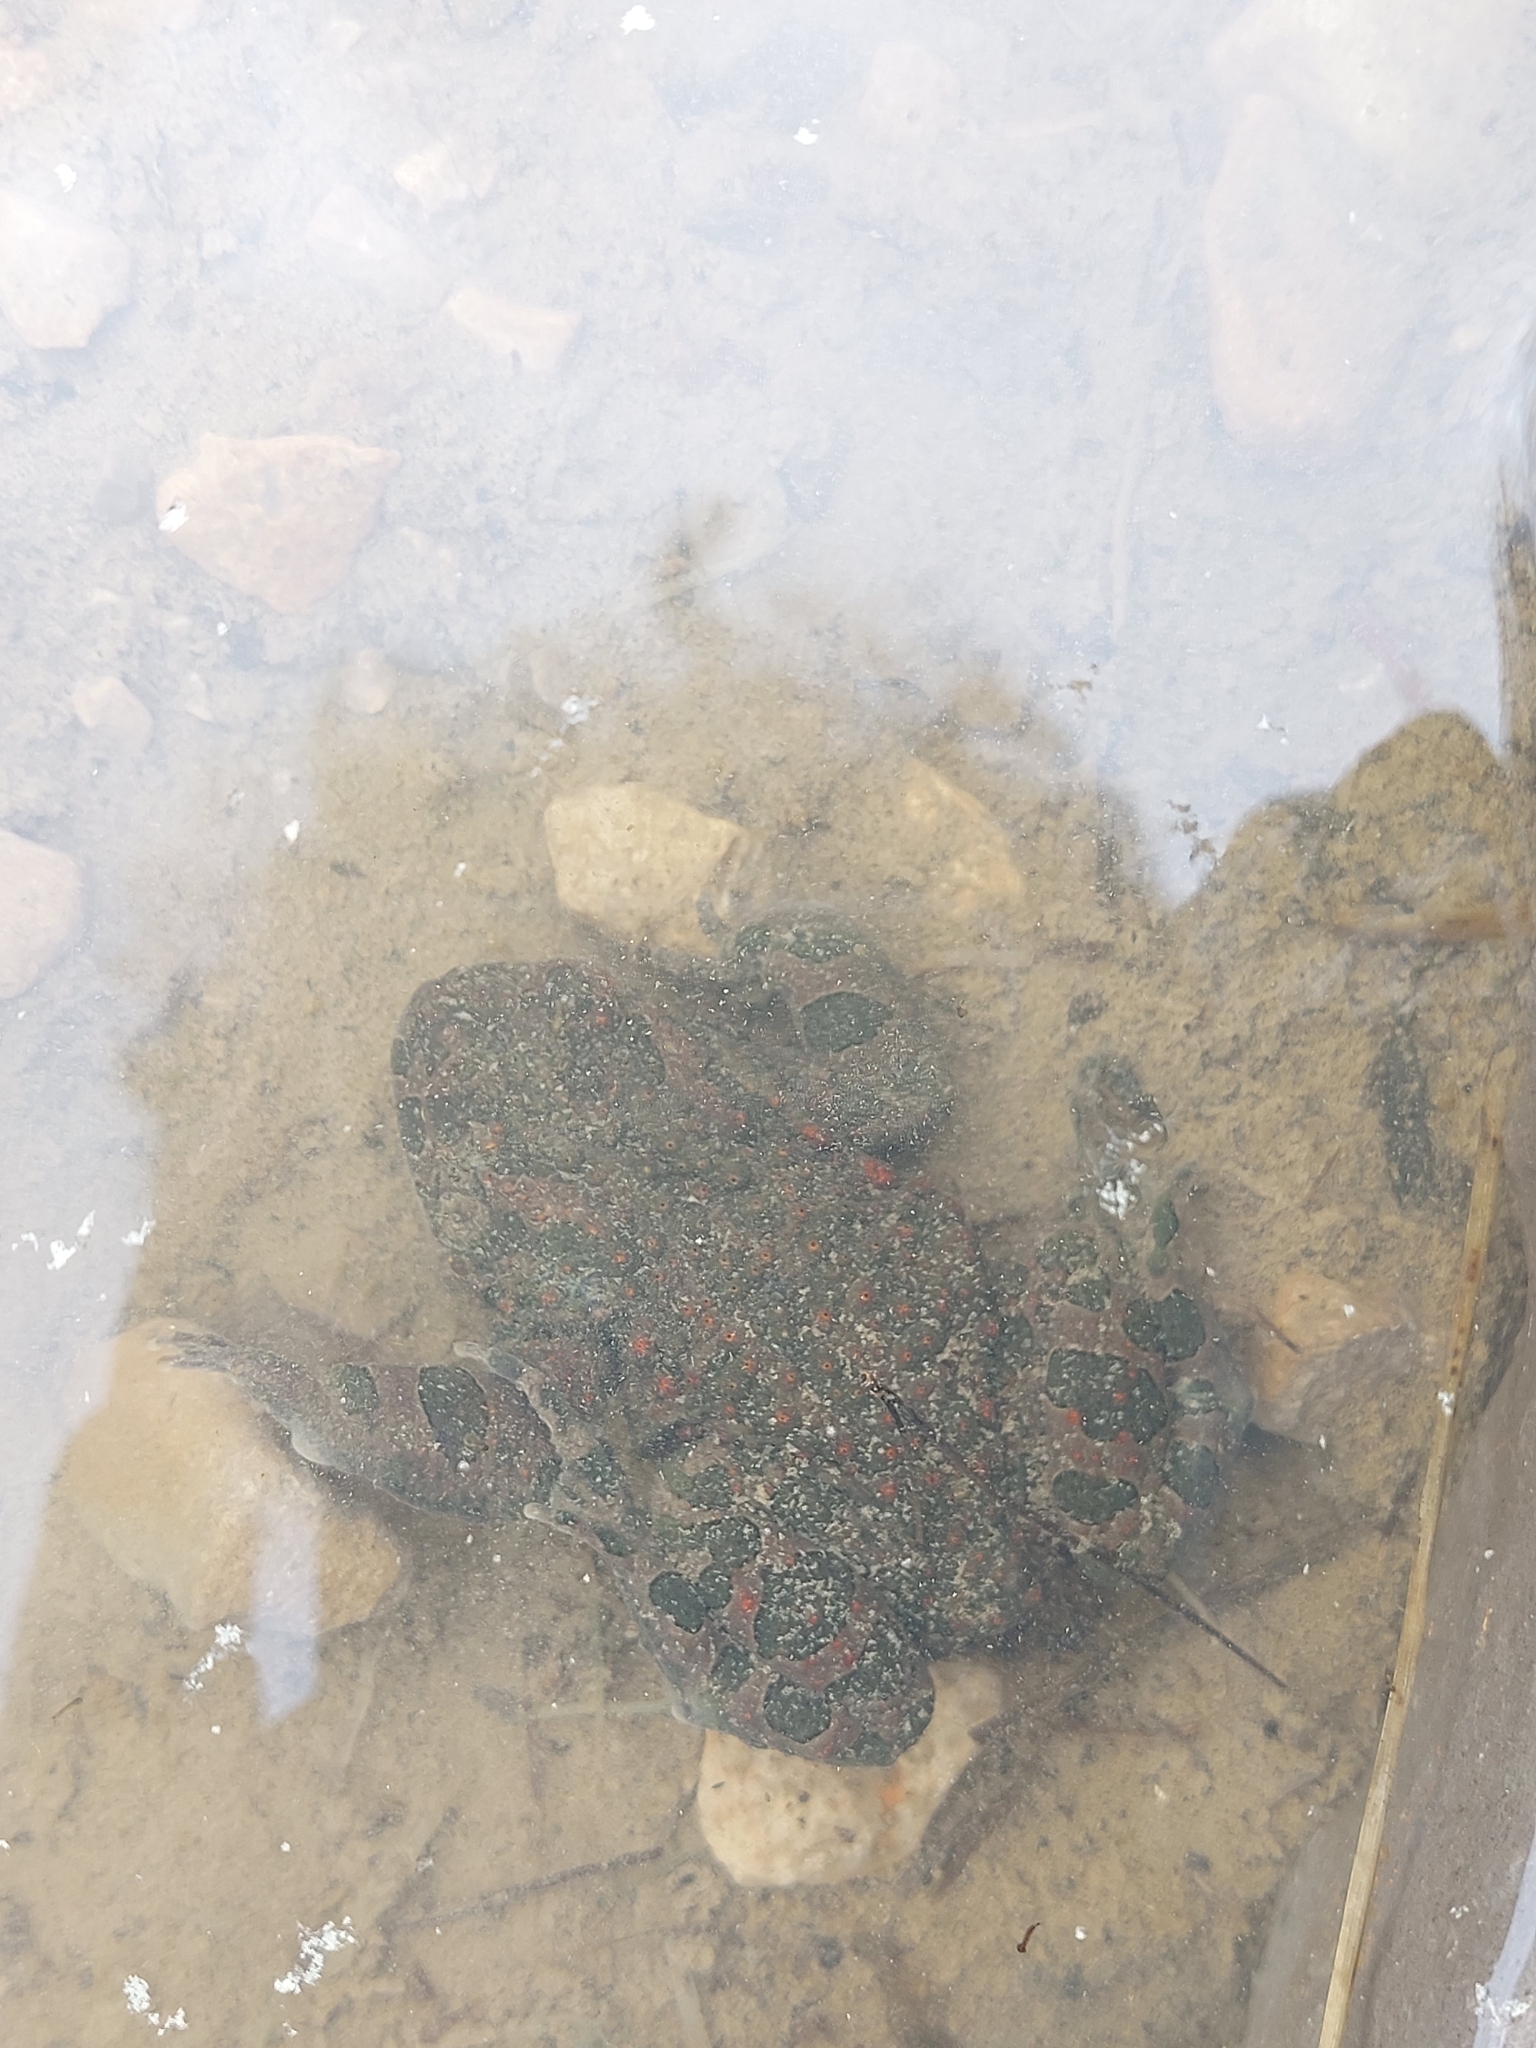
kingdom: Animalia
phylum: Chordata
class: Amphibia
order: Anura
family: Bufonidae
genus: Bufotes
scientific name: Bufotes viridis
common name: European green toad
